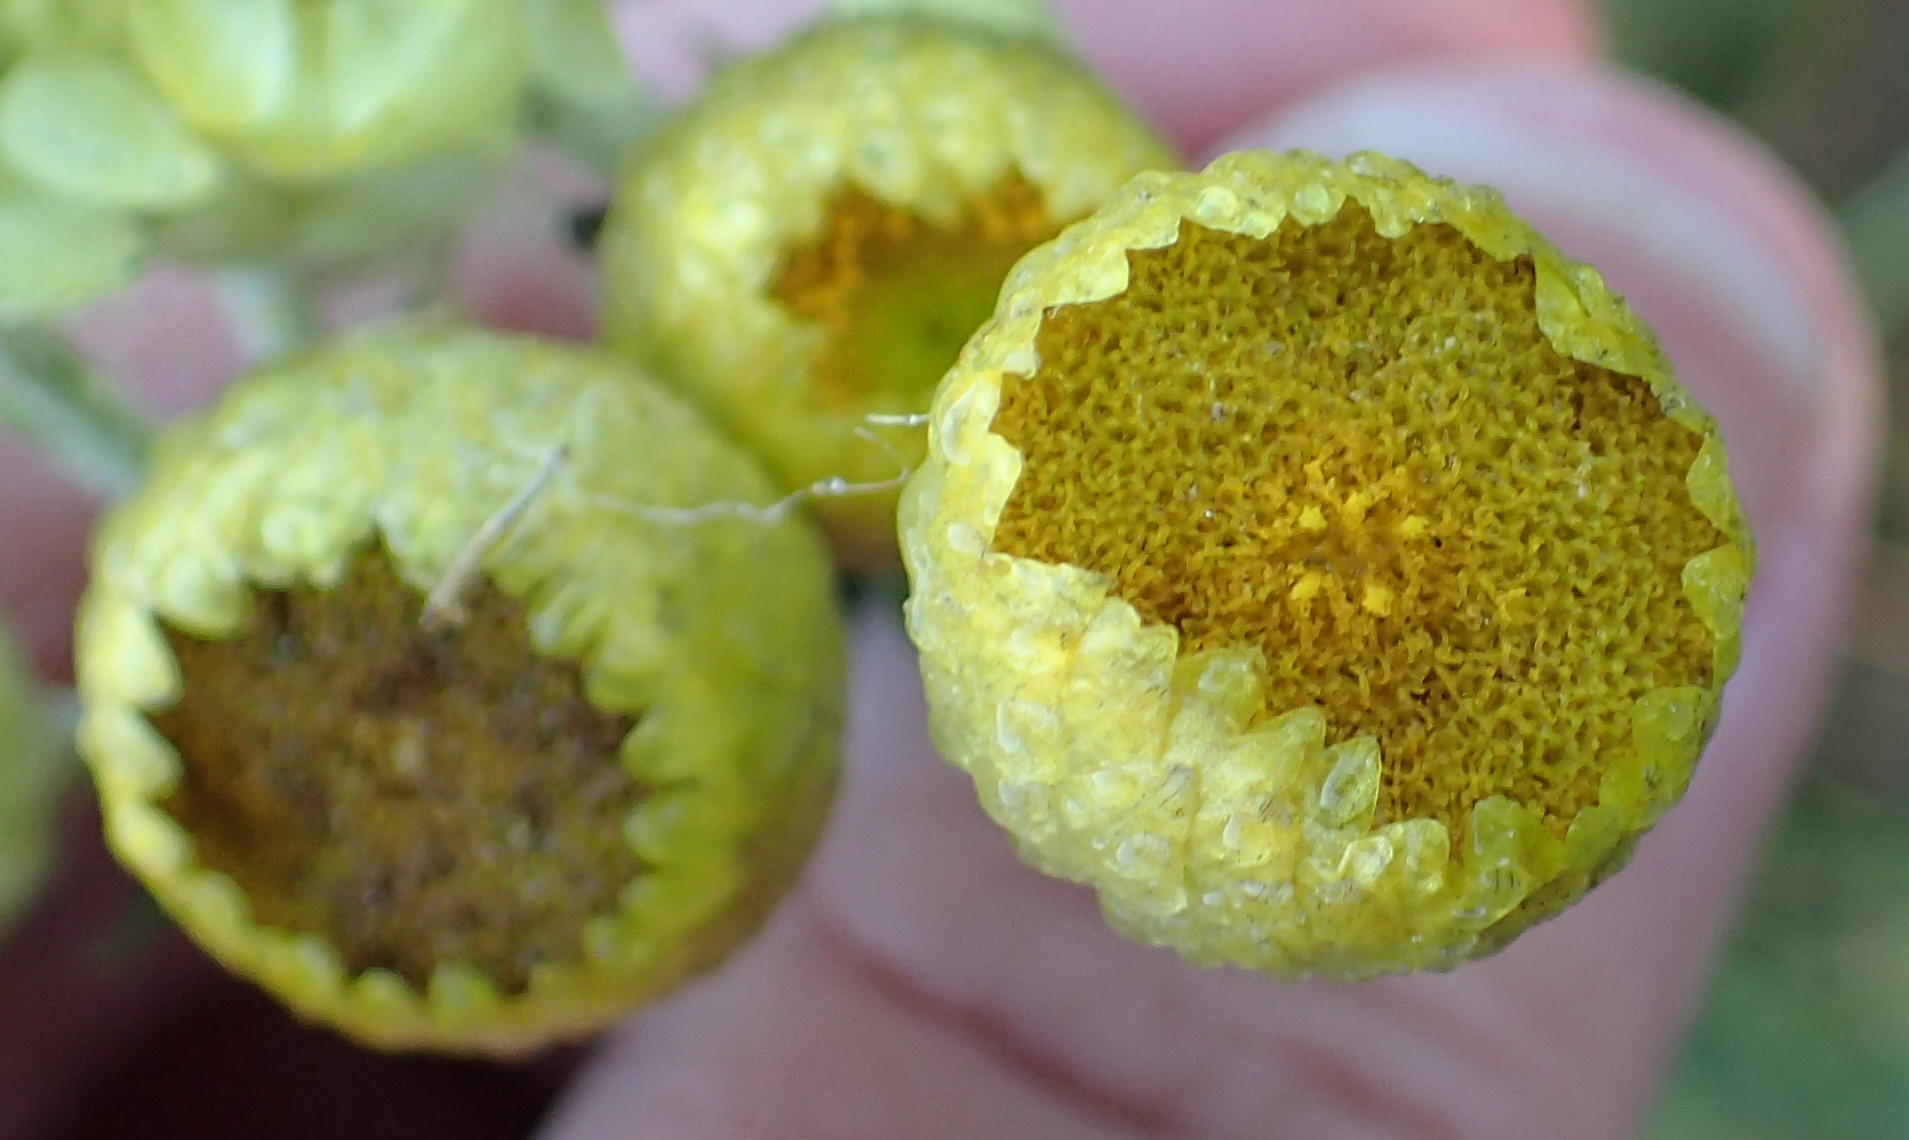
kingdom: Plantae
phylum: Tracheophyta
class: Magnoliopsida
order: Asterales
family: Asteraceae
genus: Helichrysum
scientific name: Helichrysum foetidum
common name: Stinking everlasting
